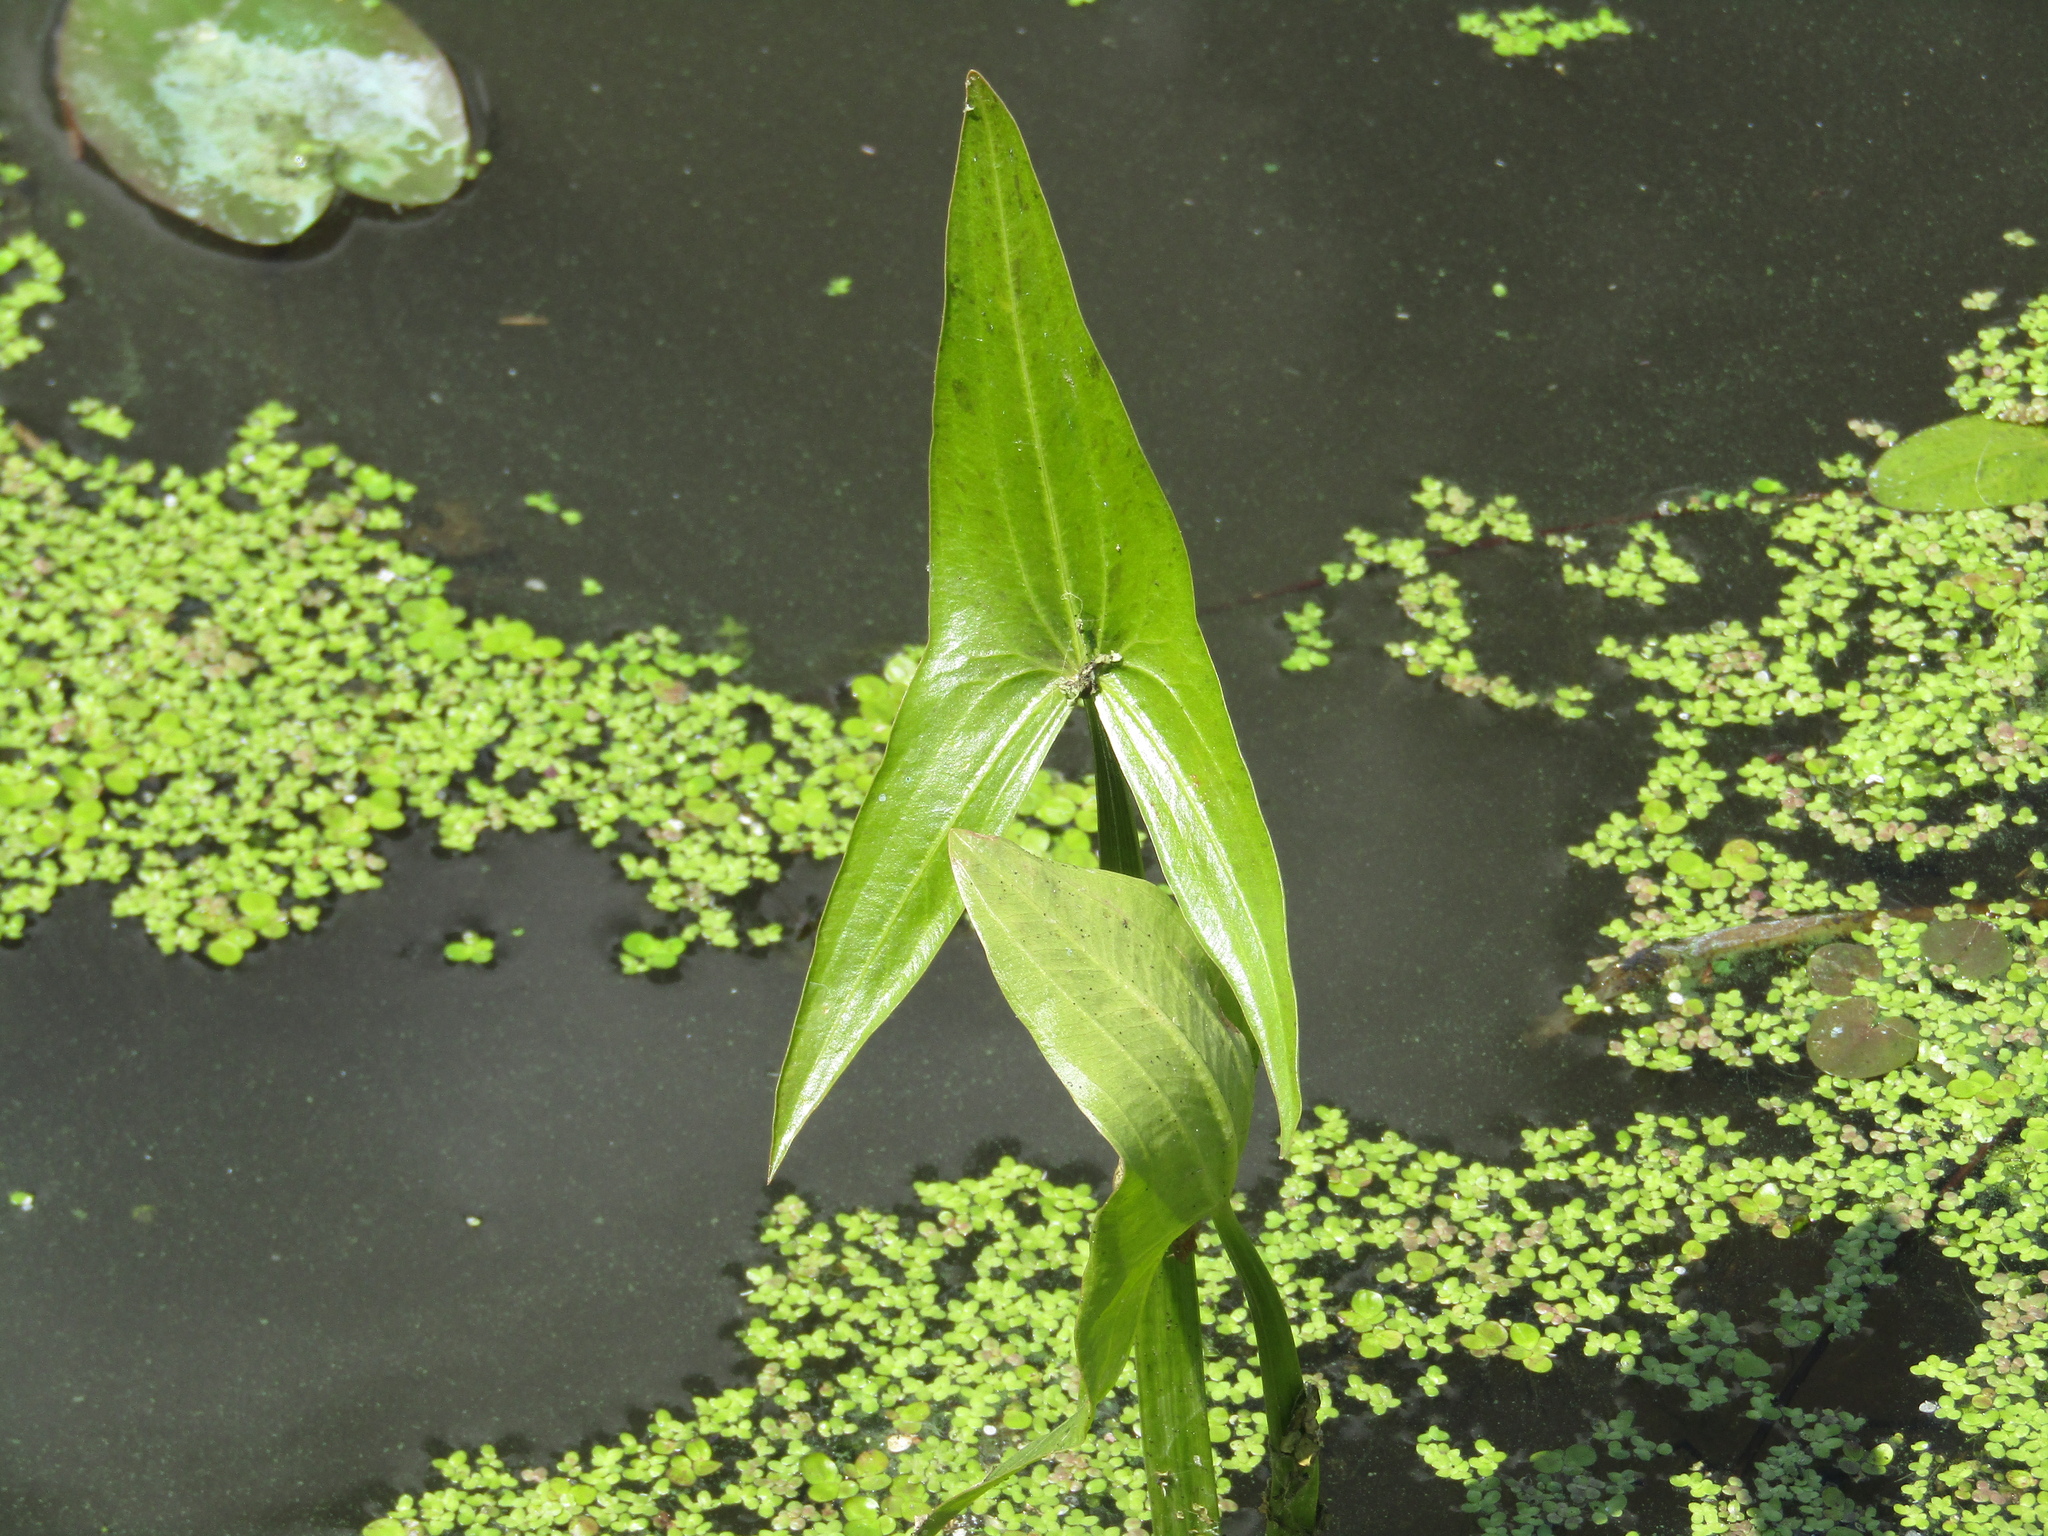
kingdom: Plantae
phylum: Tracheophyta
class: Liliopsida
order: Alismatales
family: Alismataceae
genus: Sagittaria
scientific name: Sagittaria sagittifolia
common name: Arrowhead
